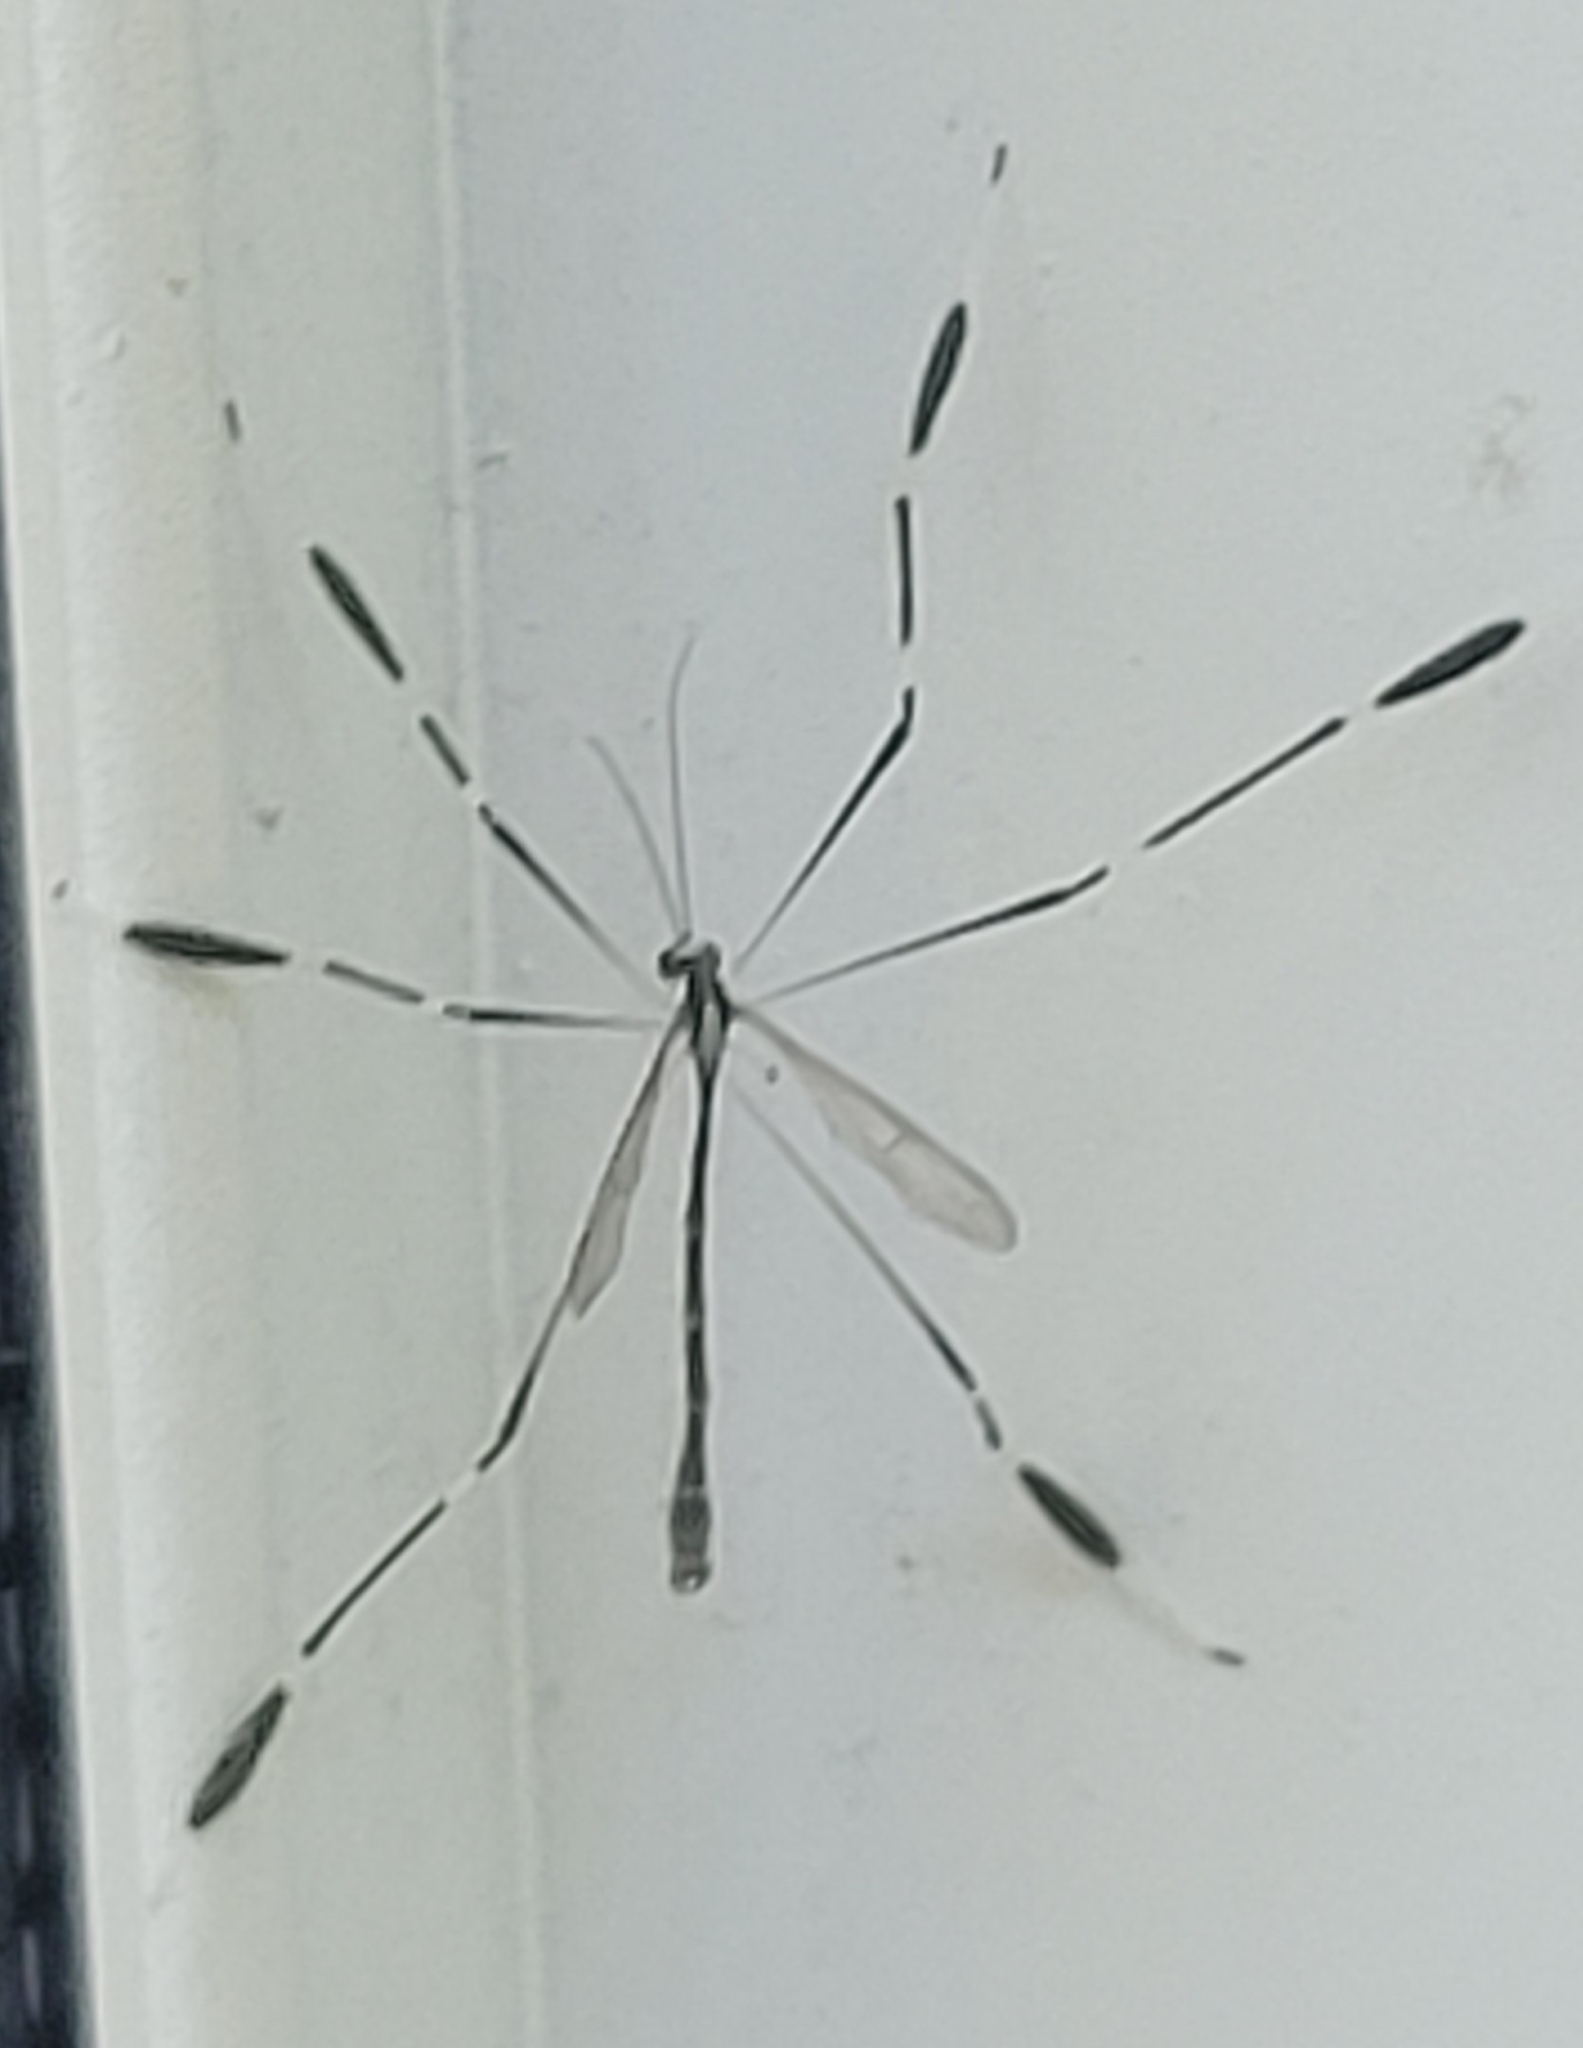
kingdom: Animalia
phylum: Arthropoda
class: Insecta
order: Diptera
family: Ptychopteridae
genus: Bittacomorpha
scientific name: Bittacomorpha clavipes
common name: Eastern phantom crane fly
